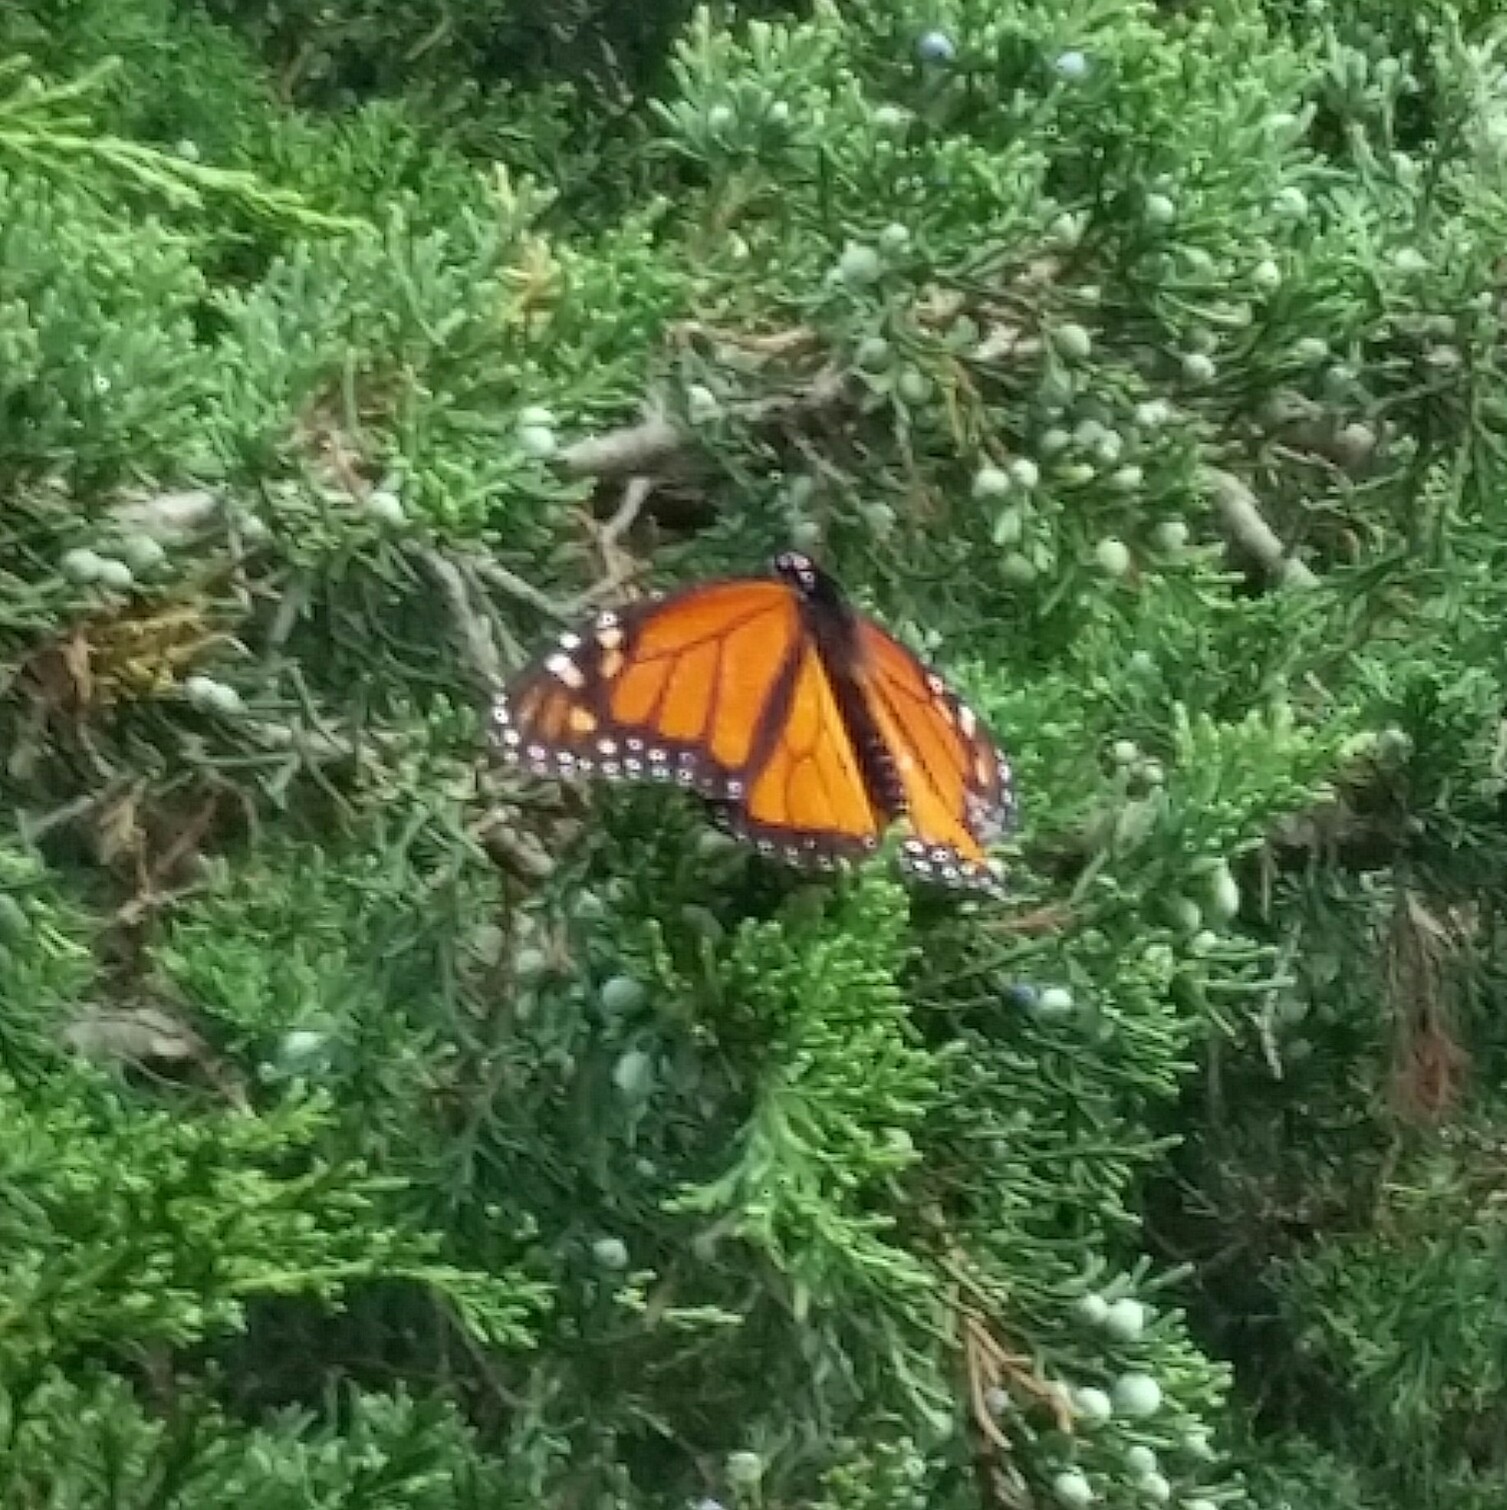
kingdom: Animalia
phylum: Arthropoda
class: Insecta
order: Lepidoptera
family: Nymphalidae
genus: Danaus
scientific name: Danaus plexippus
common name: Monarch
